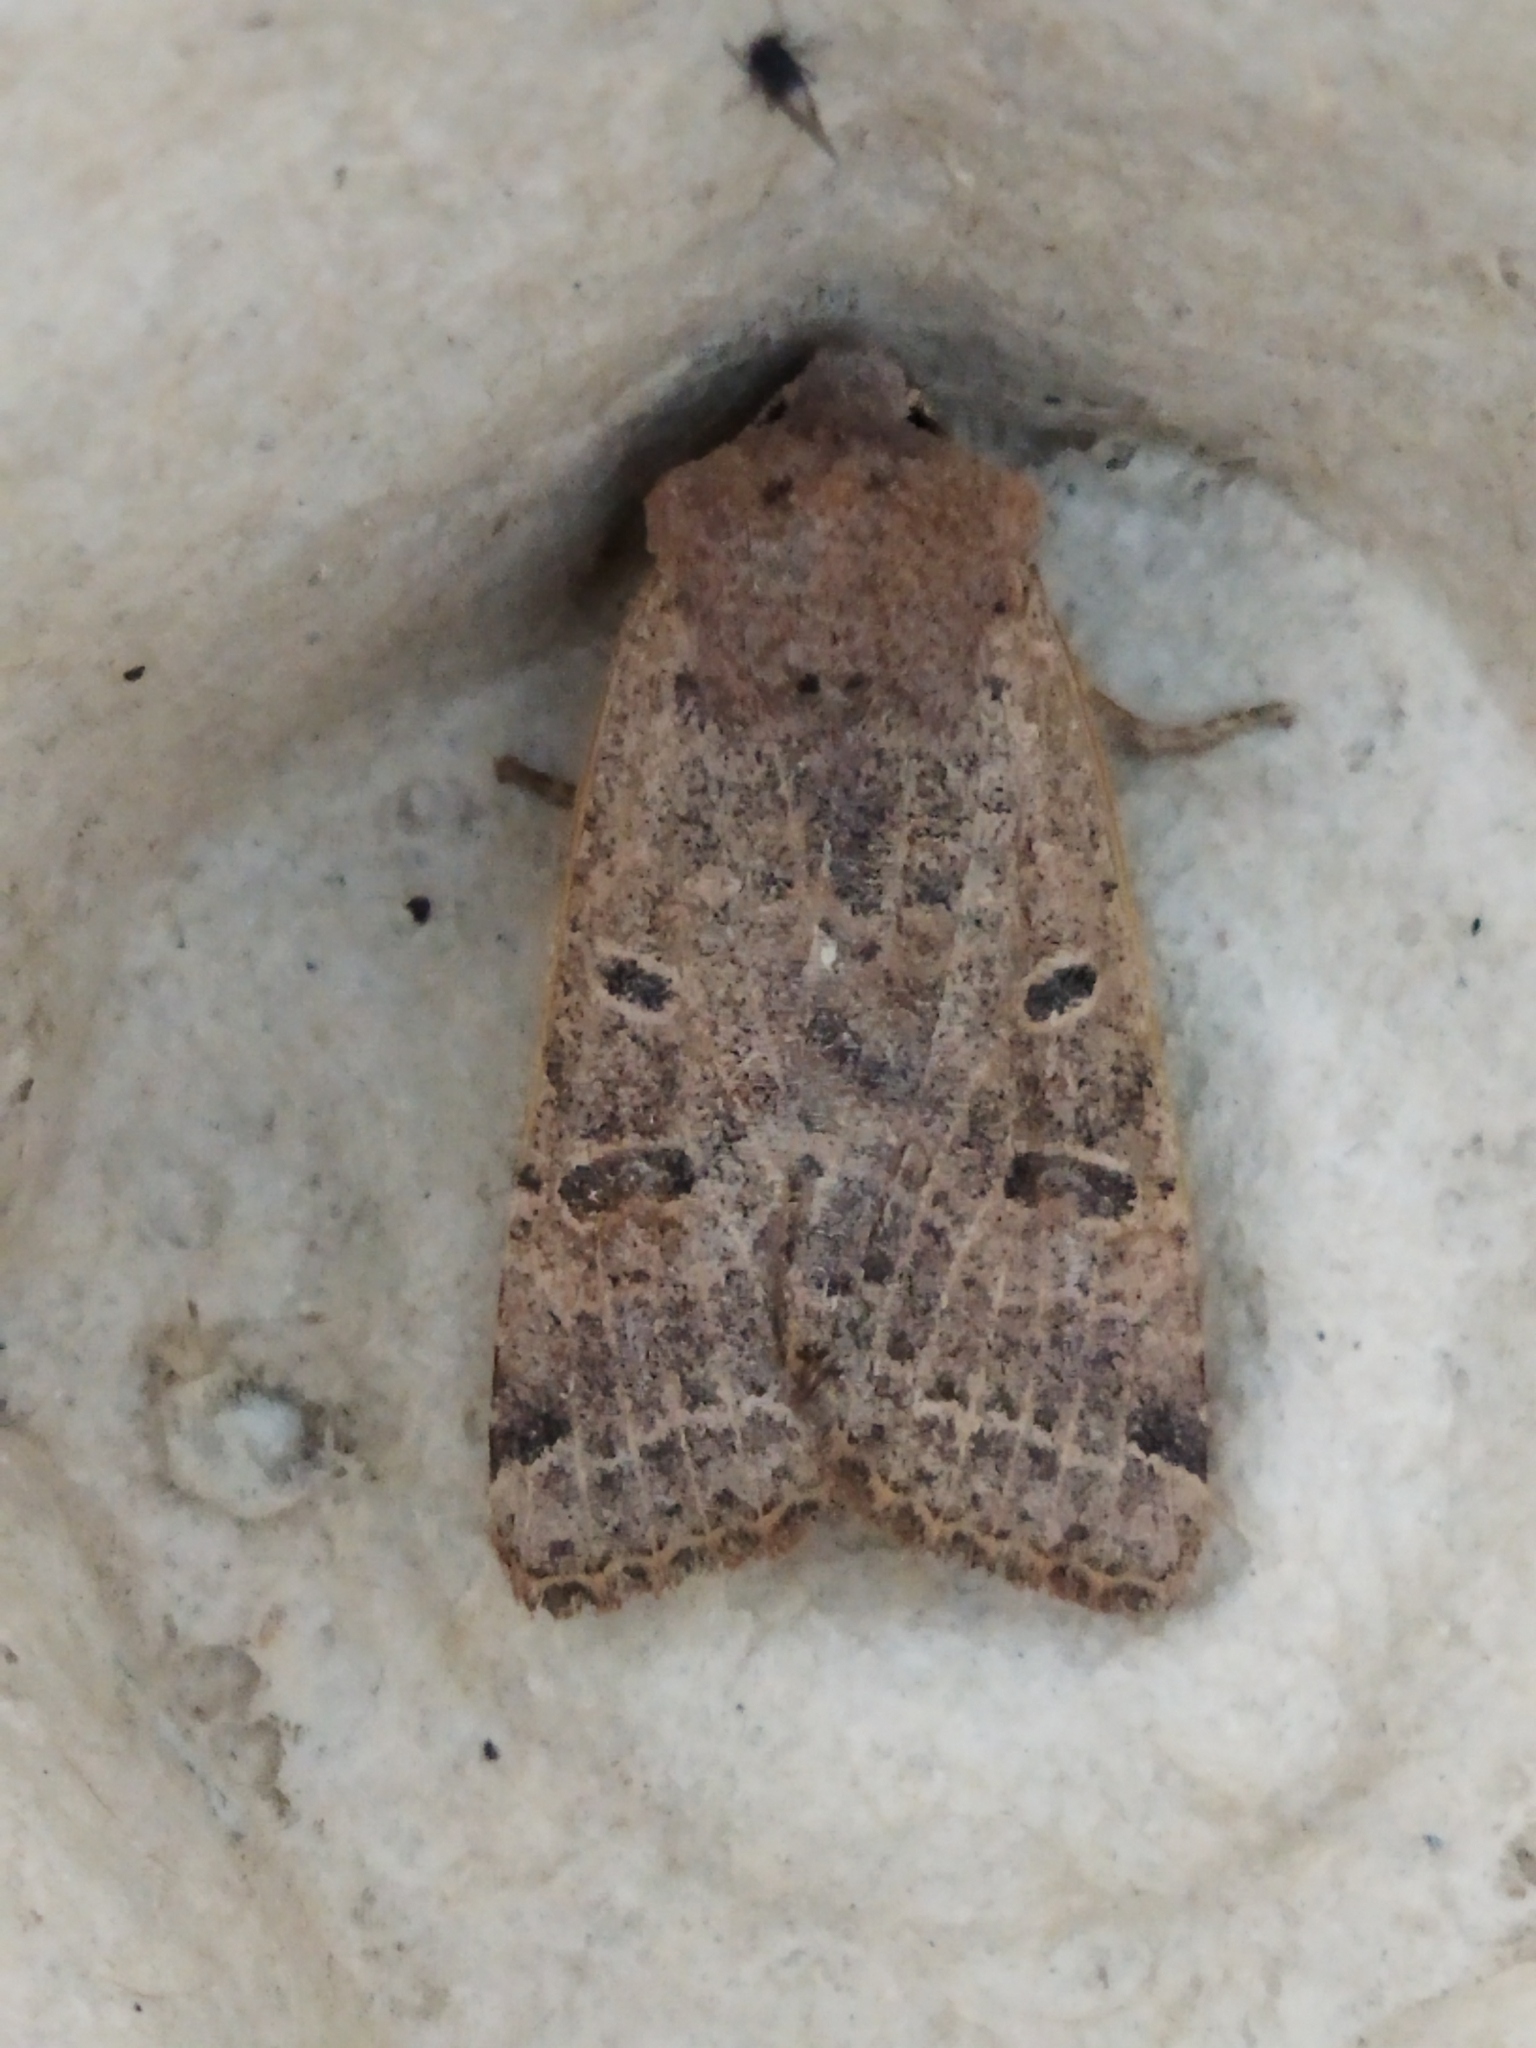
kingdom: Animalia
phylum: Arthropoda
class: Insecta
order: Lepidoptera
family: Noctuidae
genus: Agrochola
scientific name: Agrochola lychnidis
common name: Beaded chestnut
